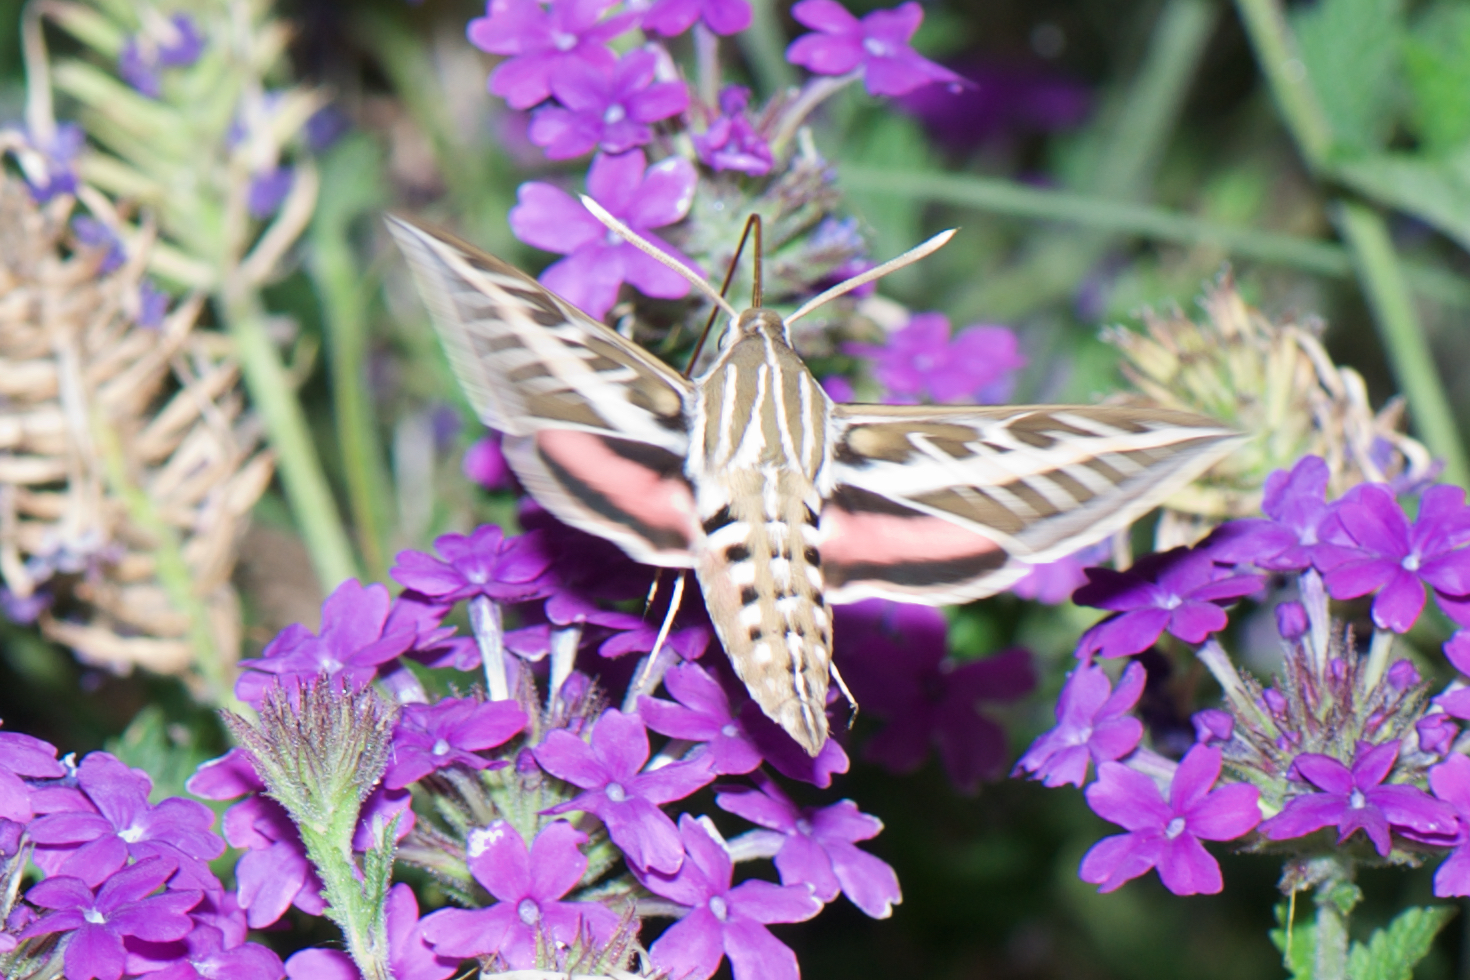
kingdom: Animalia
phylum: Arthropoda
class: Insecta
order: Lepidoptera
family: Sphingidae
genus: Hyles
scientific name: Hyles lineata
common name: White-lined sphinx
